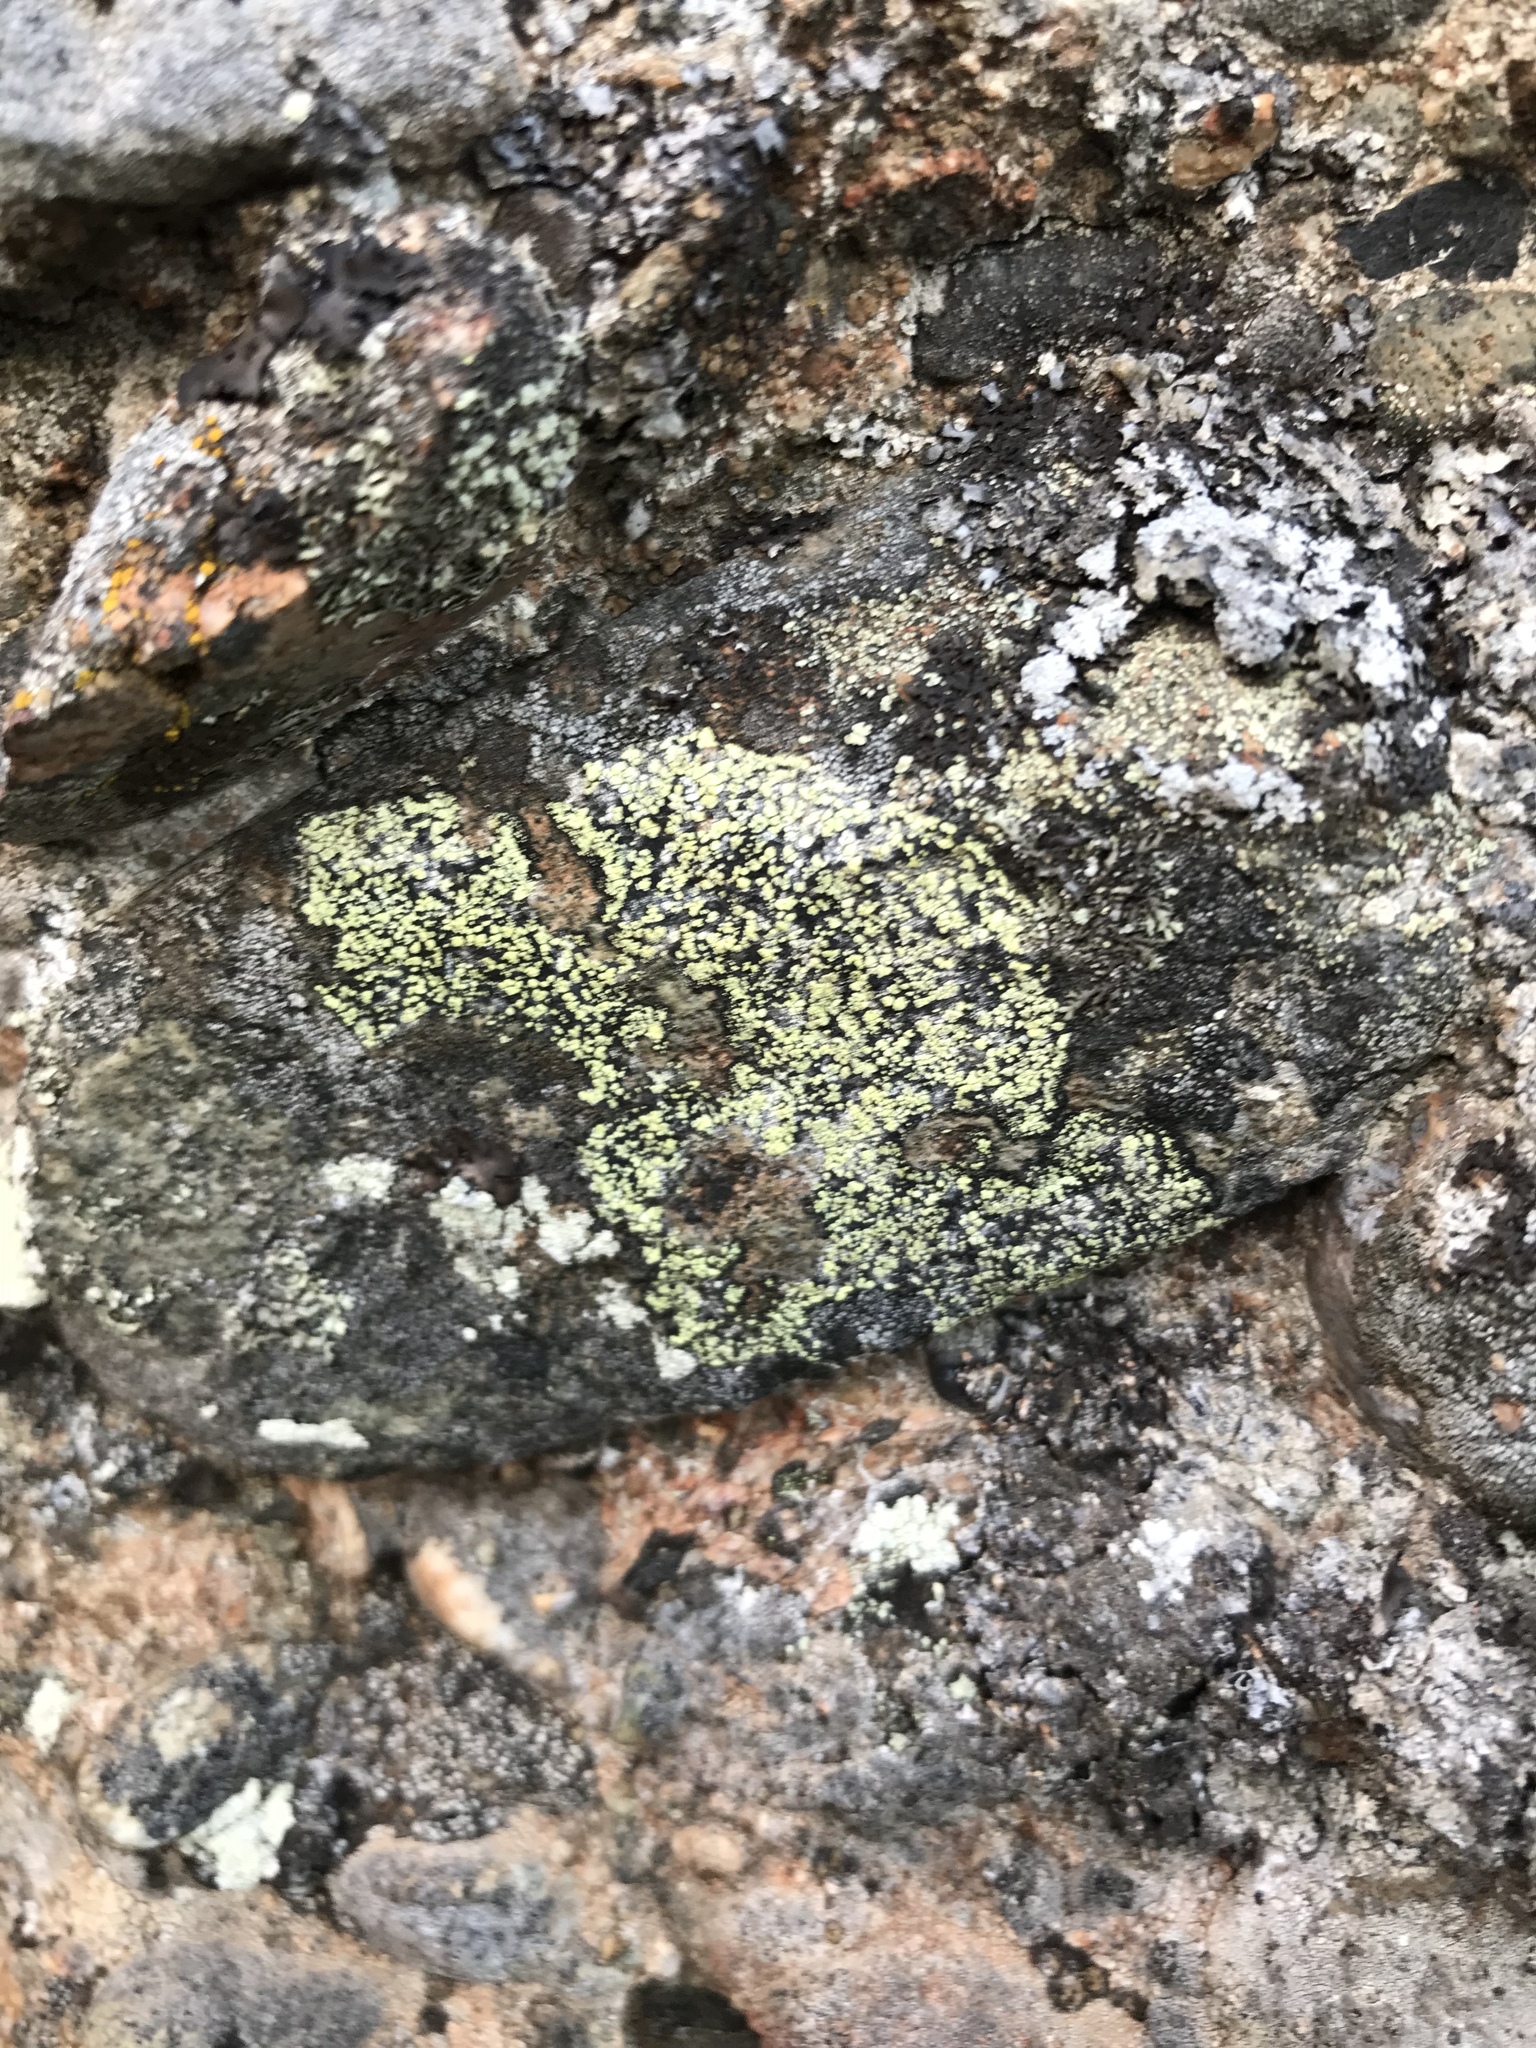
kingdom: Fungi
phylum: Ascomycota
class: Lecanoromycetes
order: Rhizocarpales
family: Rhizocarpaceae
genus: Rhizocarpon
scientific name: Rhizocarpon geographicum
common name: Yellow map lichen
